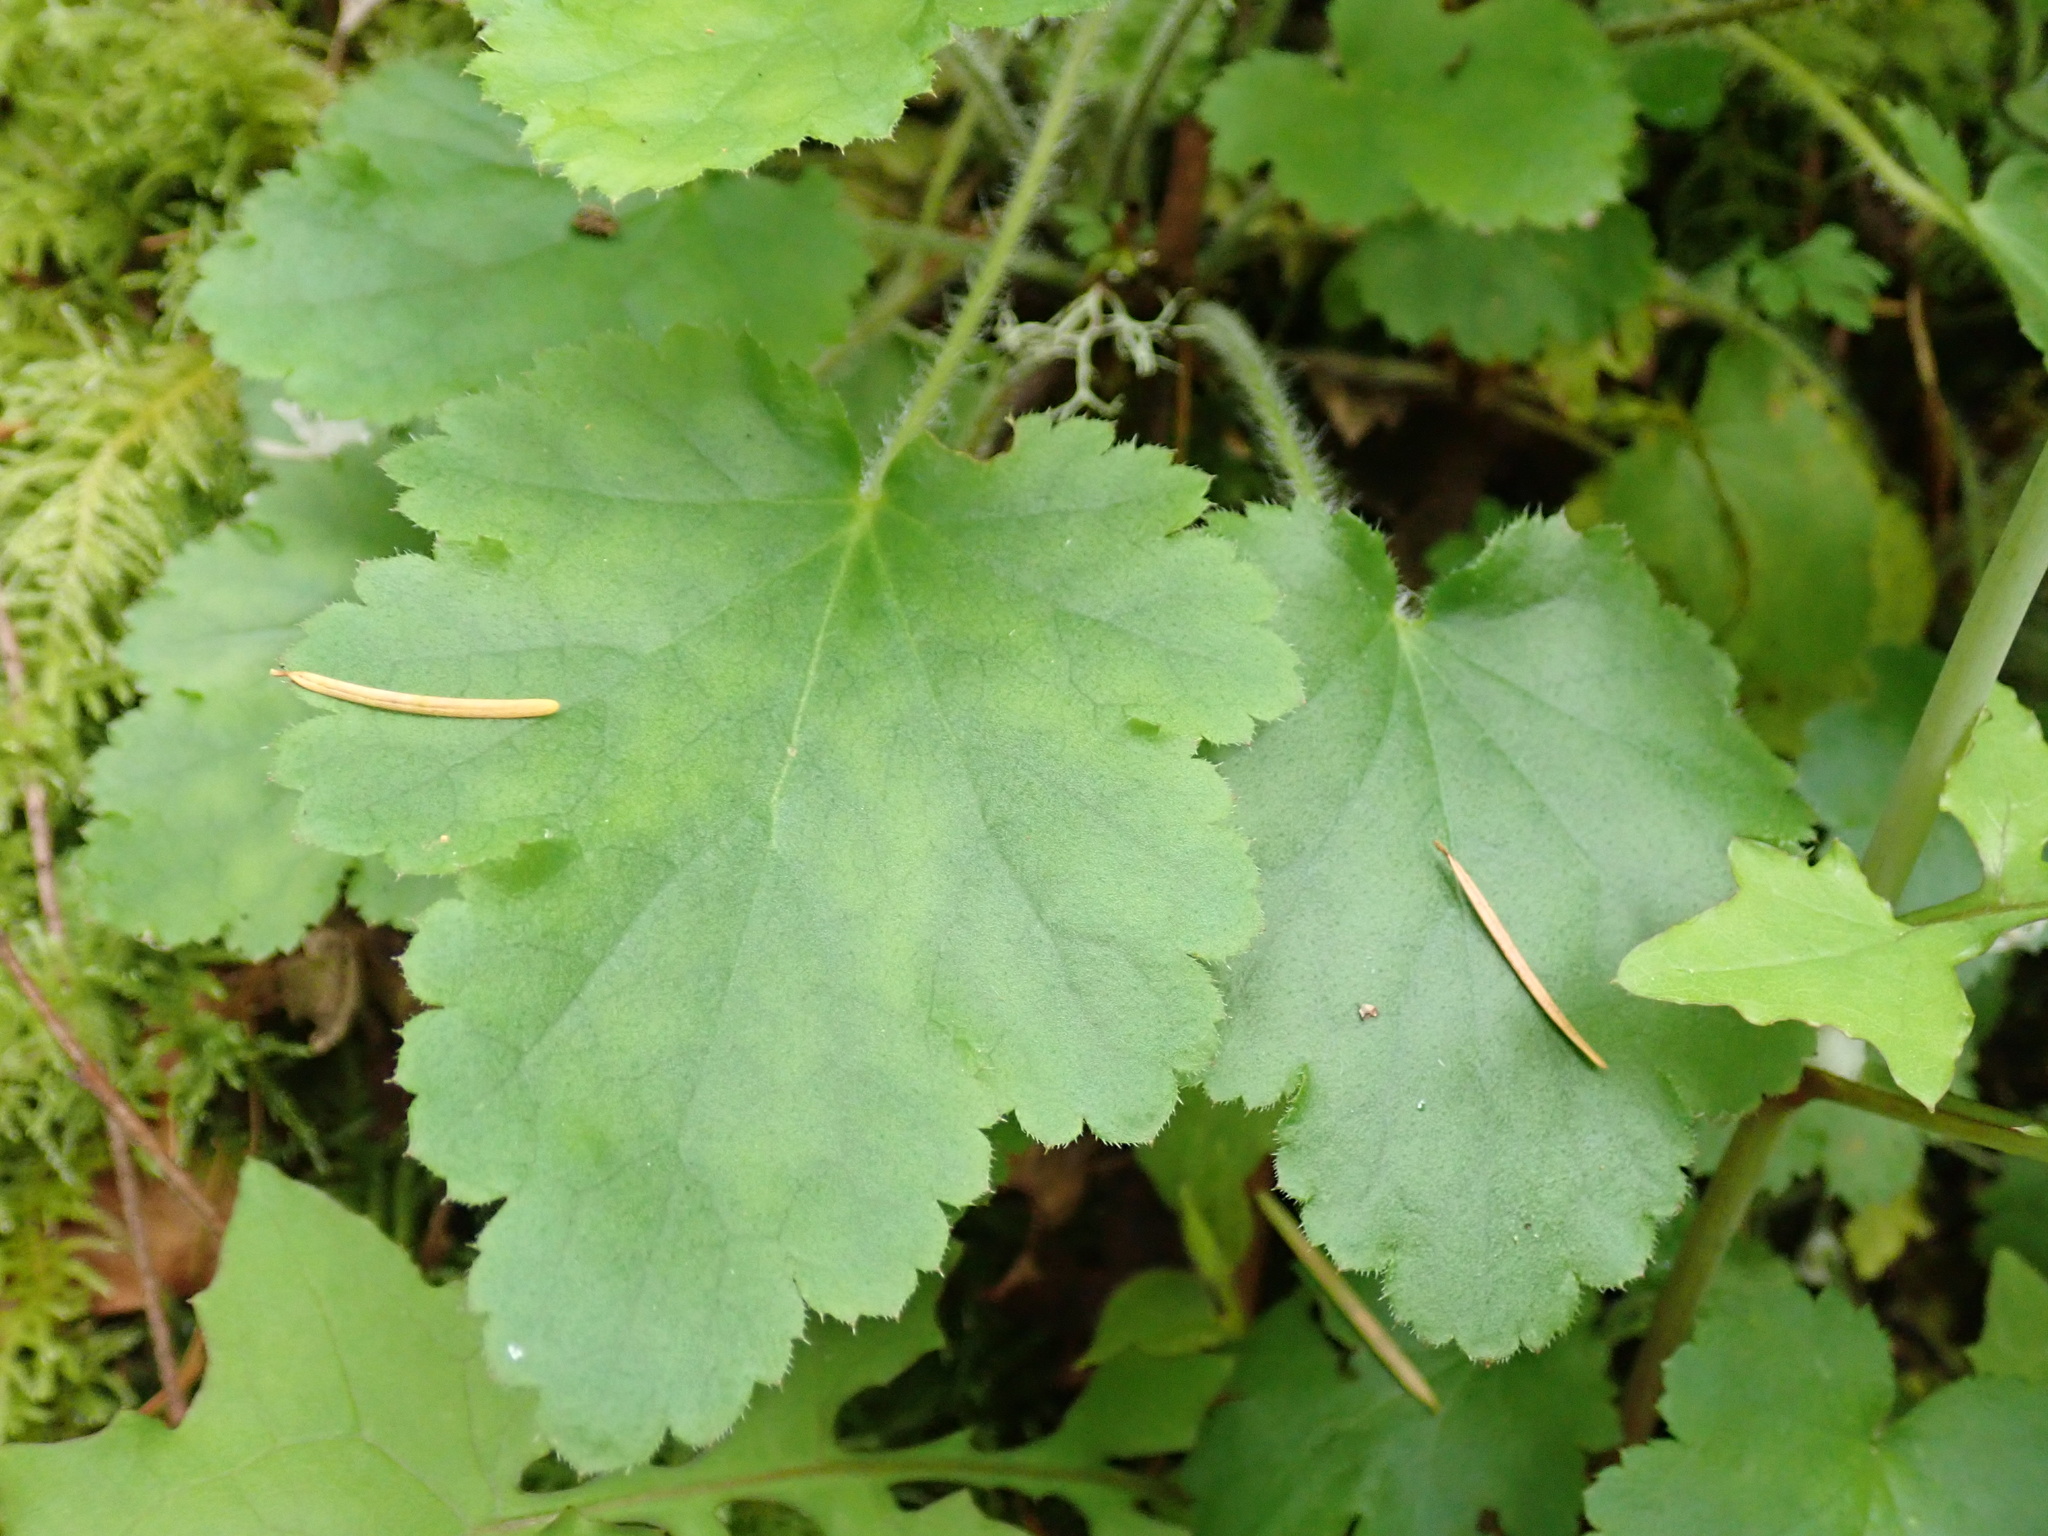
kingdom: Plantae
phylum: Tracheophyta
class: Magnoliopsida
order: Saxifragales
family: Saxifragaceae
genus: Heuchera
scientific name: Heuchera micrantha
